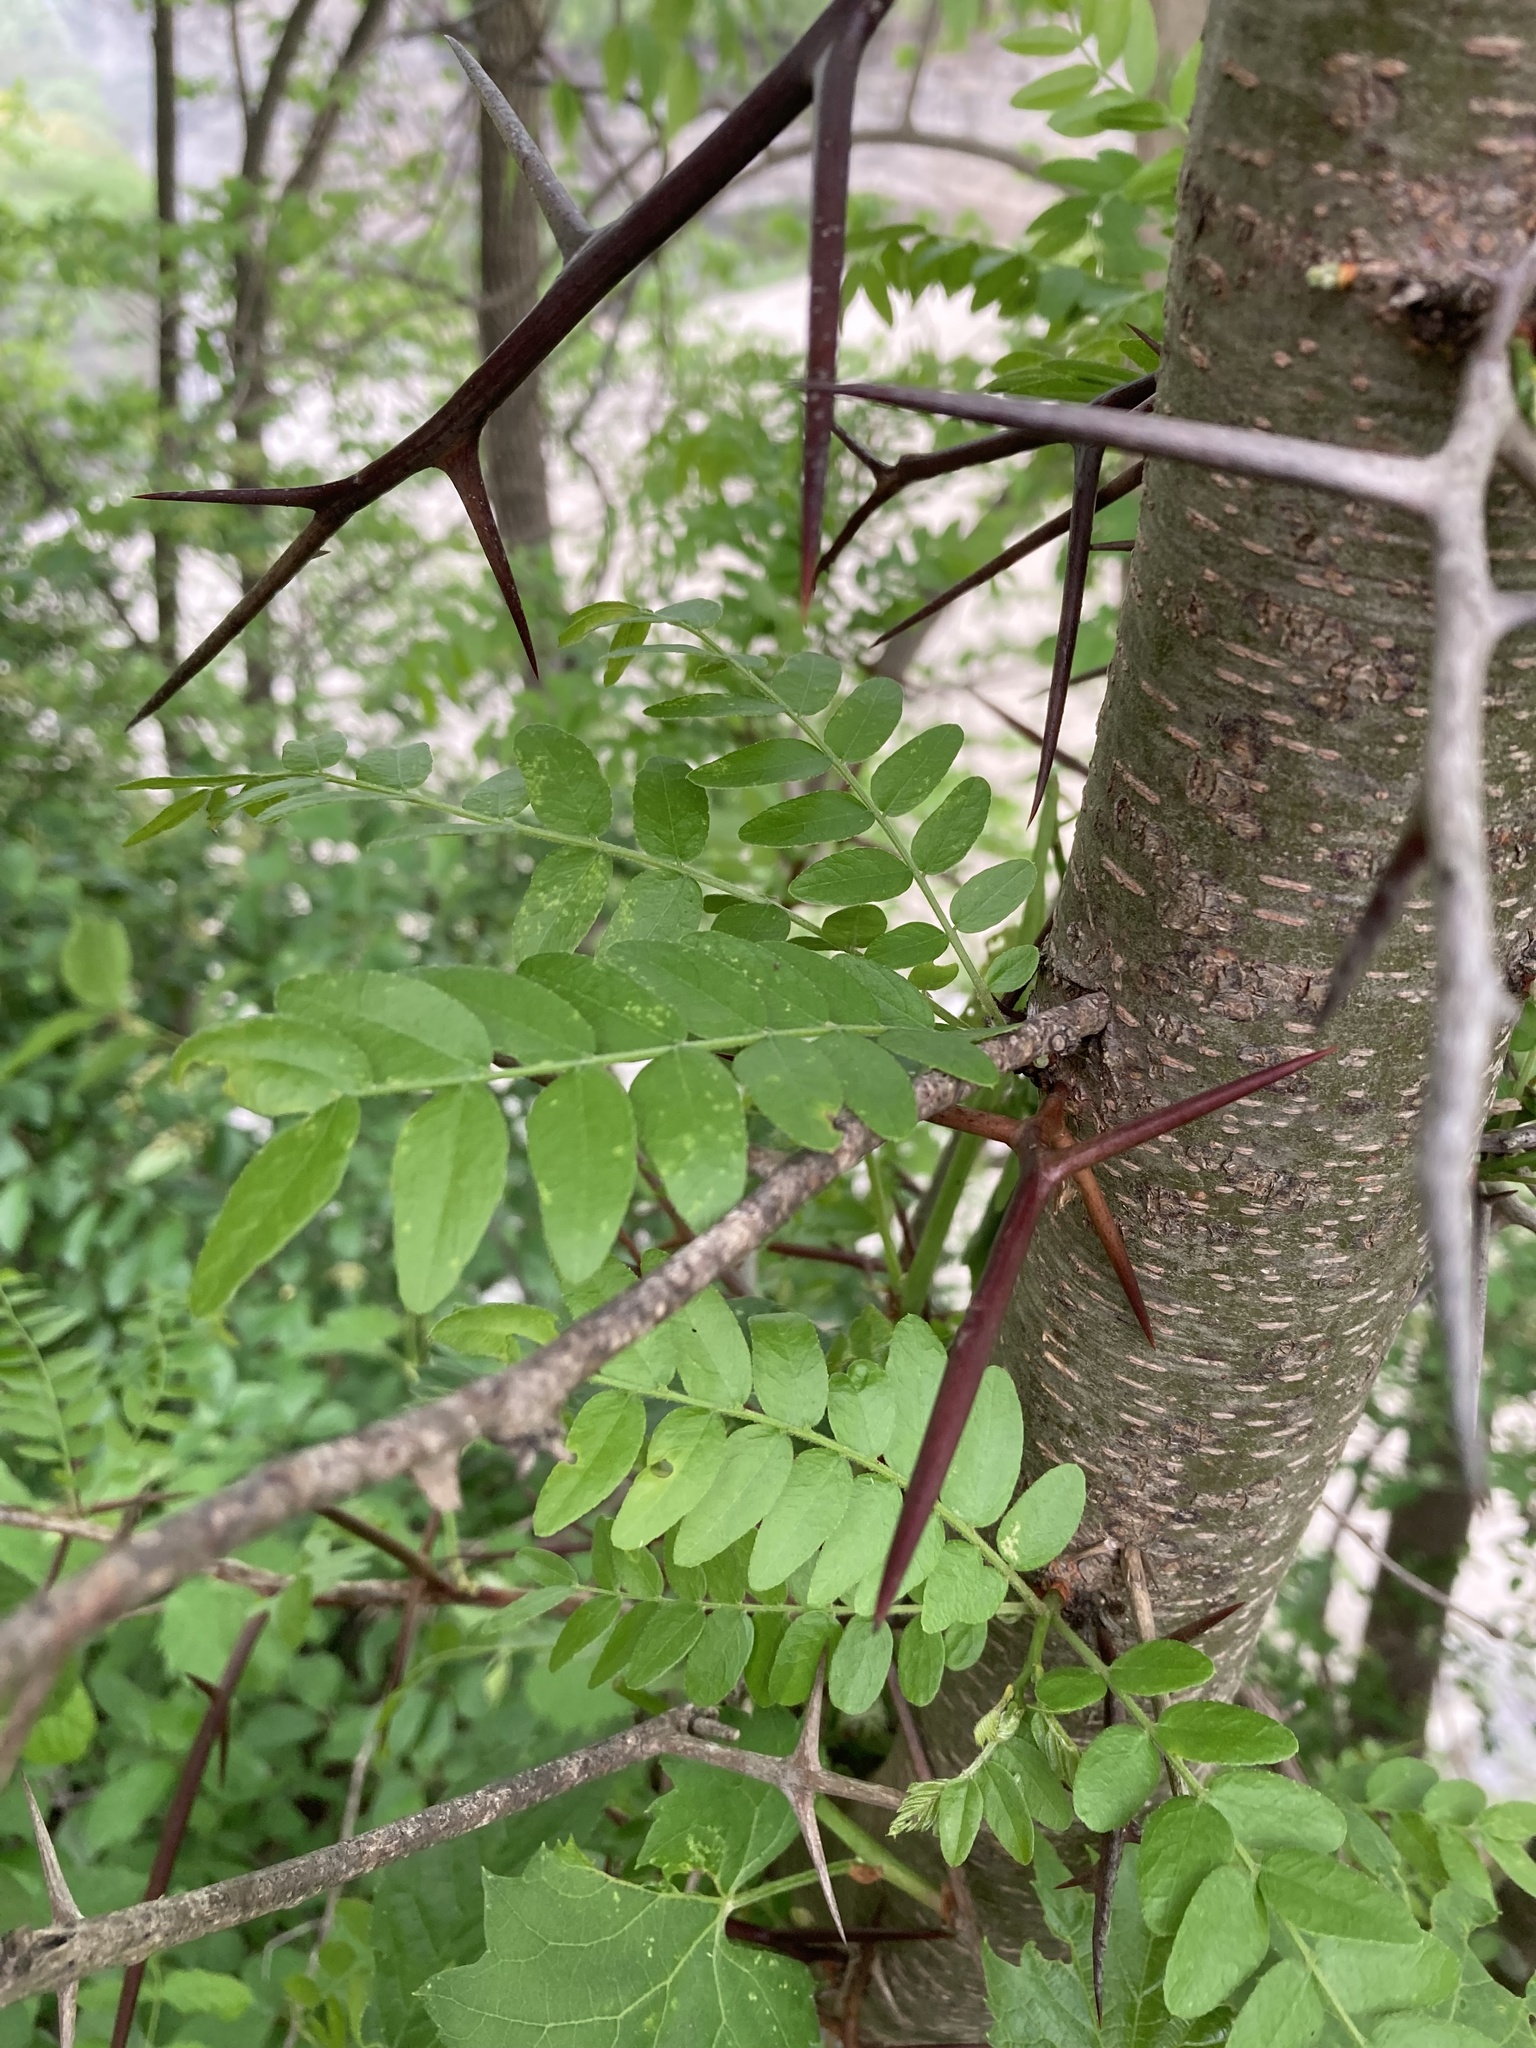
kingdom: Plantae
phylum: Tracheophyta
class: Magnoliopsida
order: Fabales
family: Fabaceae
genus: Gleditsia
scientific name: Gleditsia triacanthos
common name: Common honeylocust
